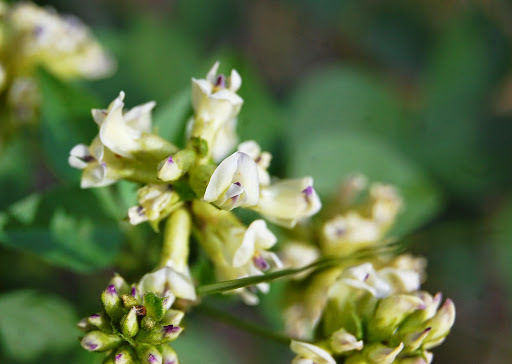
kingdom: Plantae
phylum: Tracheophyta
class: Magnoliopsida
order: Fabales
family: Fabaceae
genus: Rupertia
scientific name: Rupertia physodes
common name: California-tea
